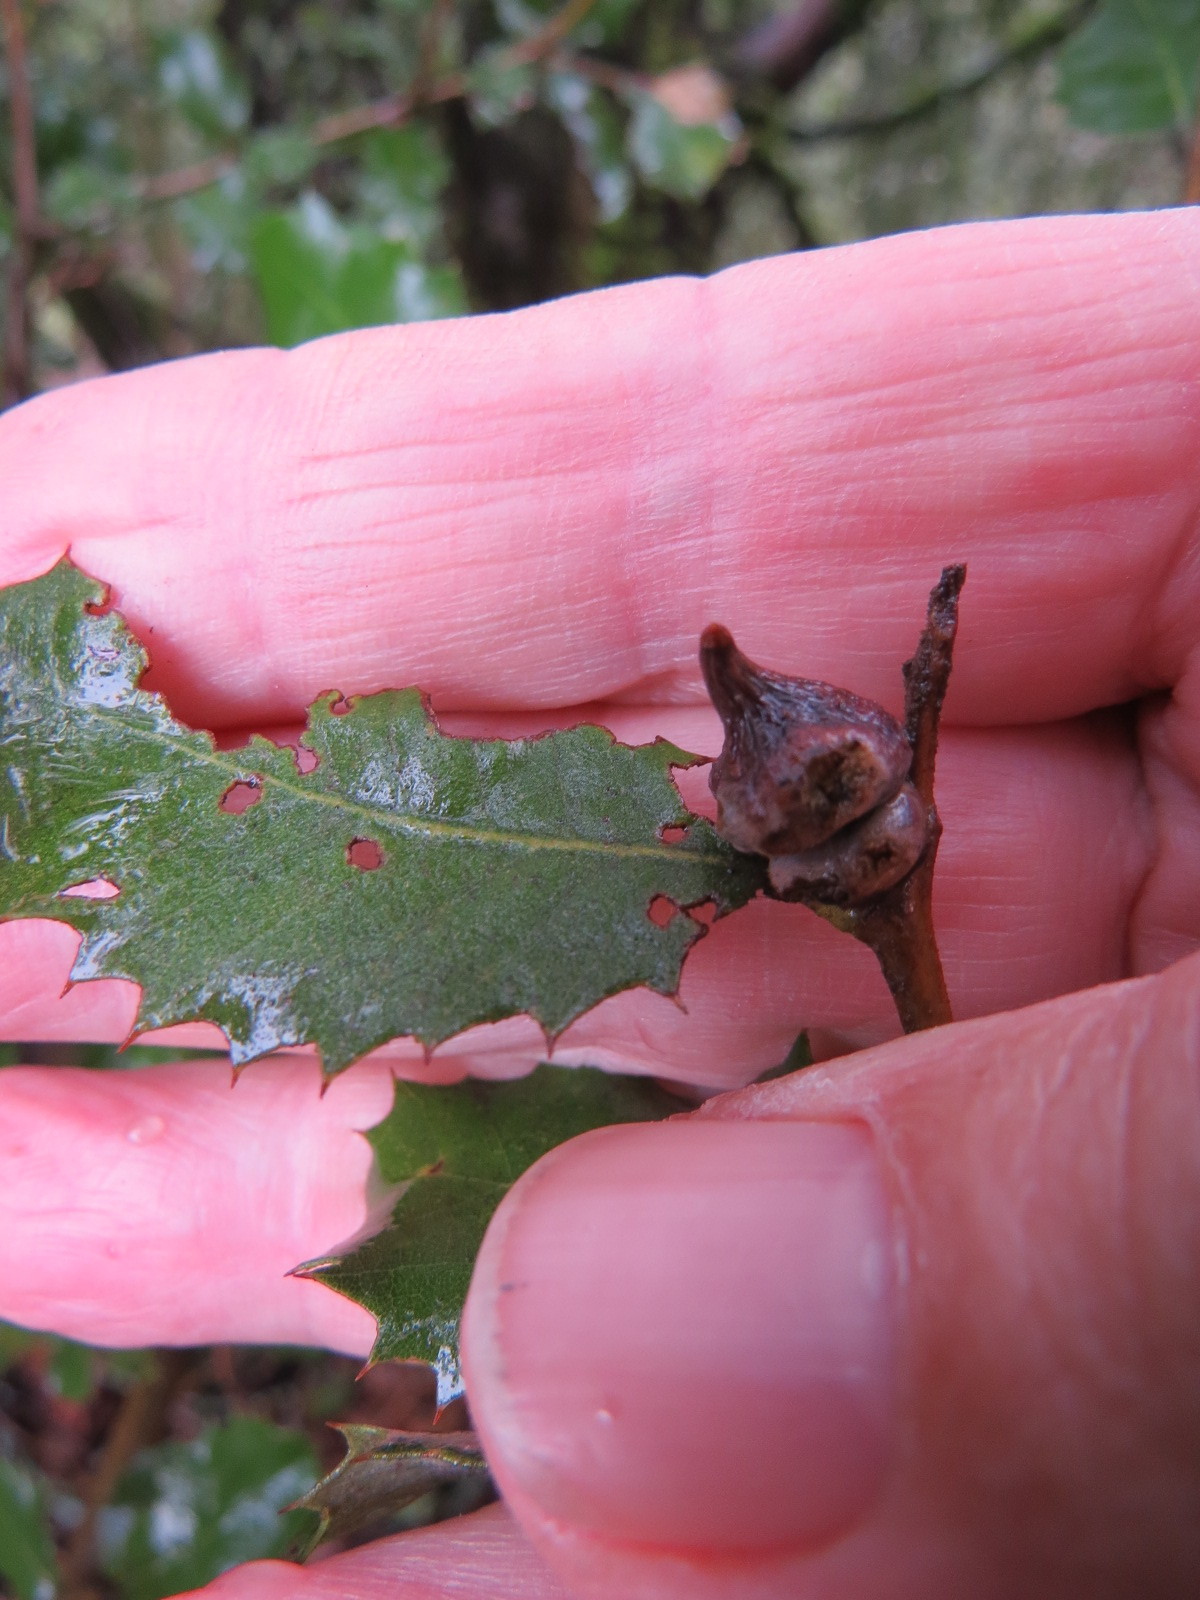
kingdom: Animalia
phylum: Arthropoda
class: Insecta
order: Hymenoptera
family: Cynipidae
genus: Heteroecus
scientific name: Heteroecus
